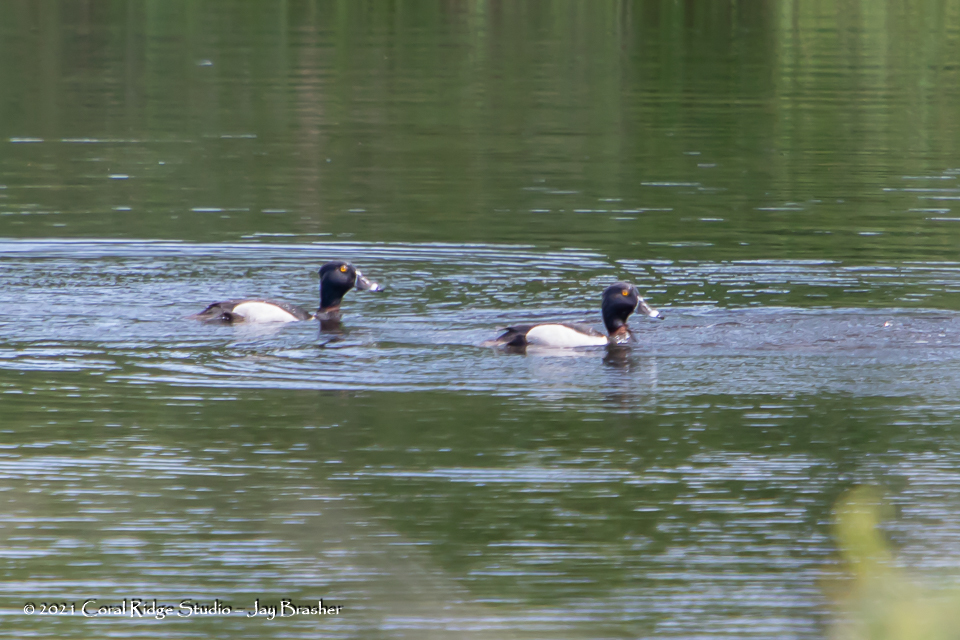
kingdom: Animalia
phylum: Chordata
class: Aves
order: Anseriformes
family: Anatidae
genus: Aythya
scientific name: Aythya collaris
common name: Ring-necked duck
